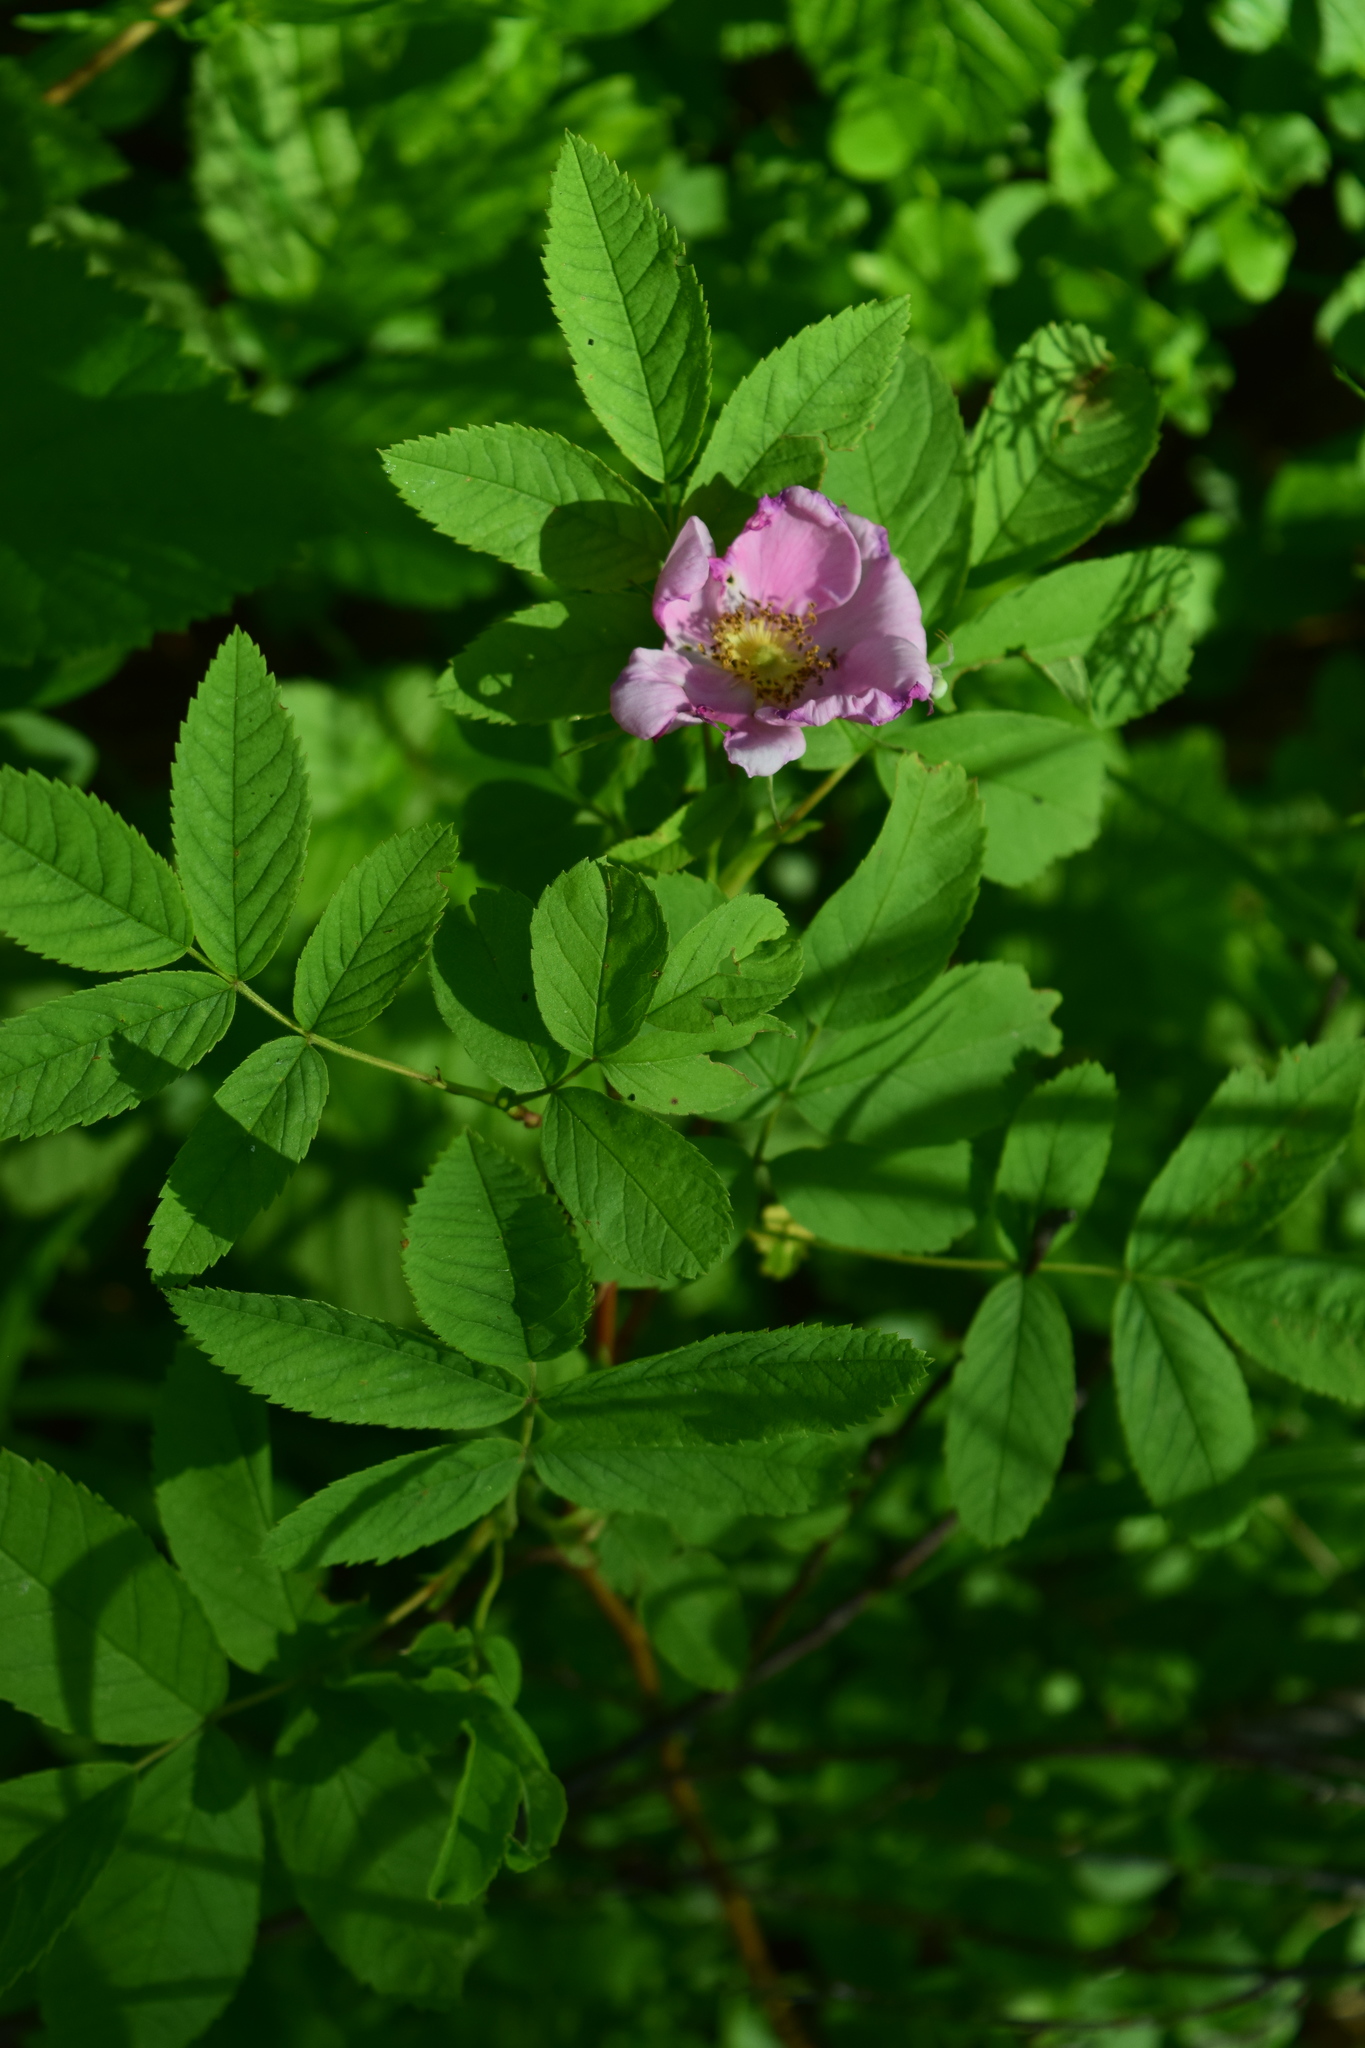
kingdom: Plantae
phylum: Tracheophyta
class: Magnoliopsida
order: Rosales
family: Rosaceae
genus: Rosa
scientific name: Rosa
